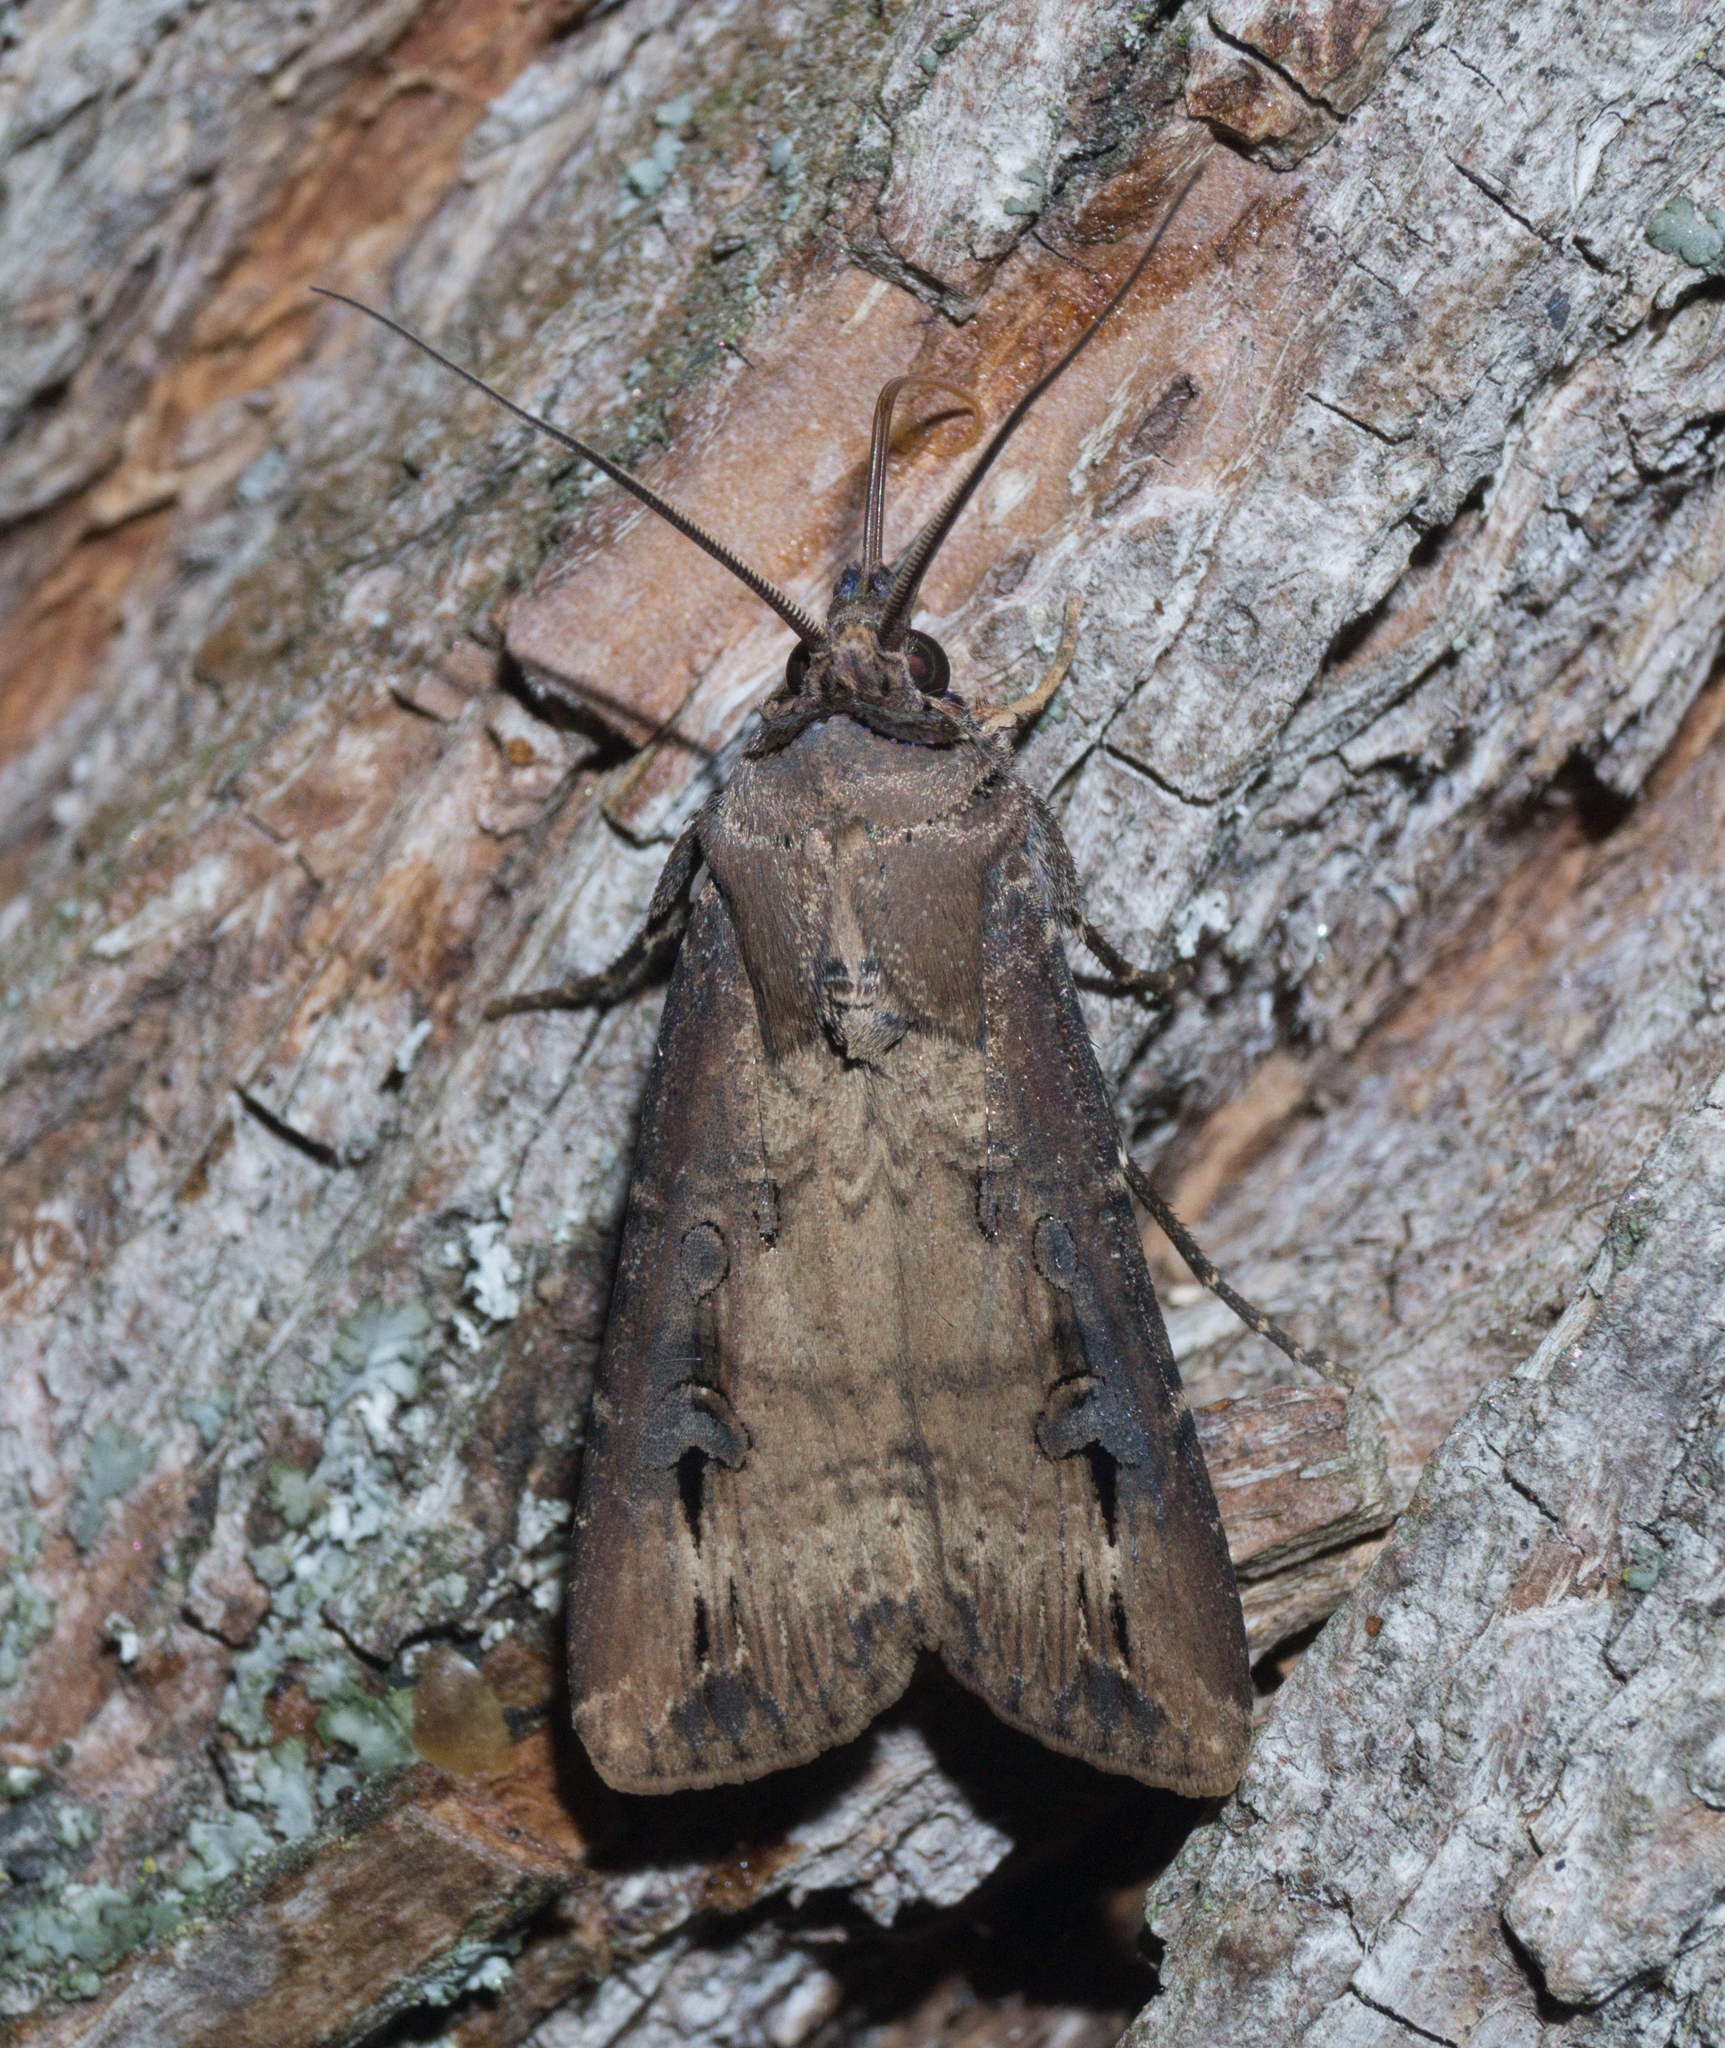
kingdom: Animalia
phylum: Arthropoda
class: Insecta
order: Lepidoptera
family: Noctuidae
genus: Agrotis
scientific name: Agrotis ipsilon
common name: Dark sword-grass
